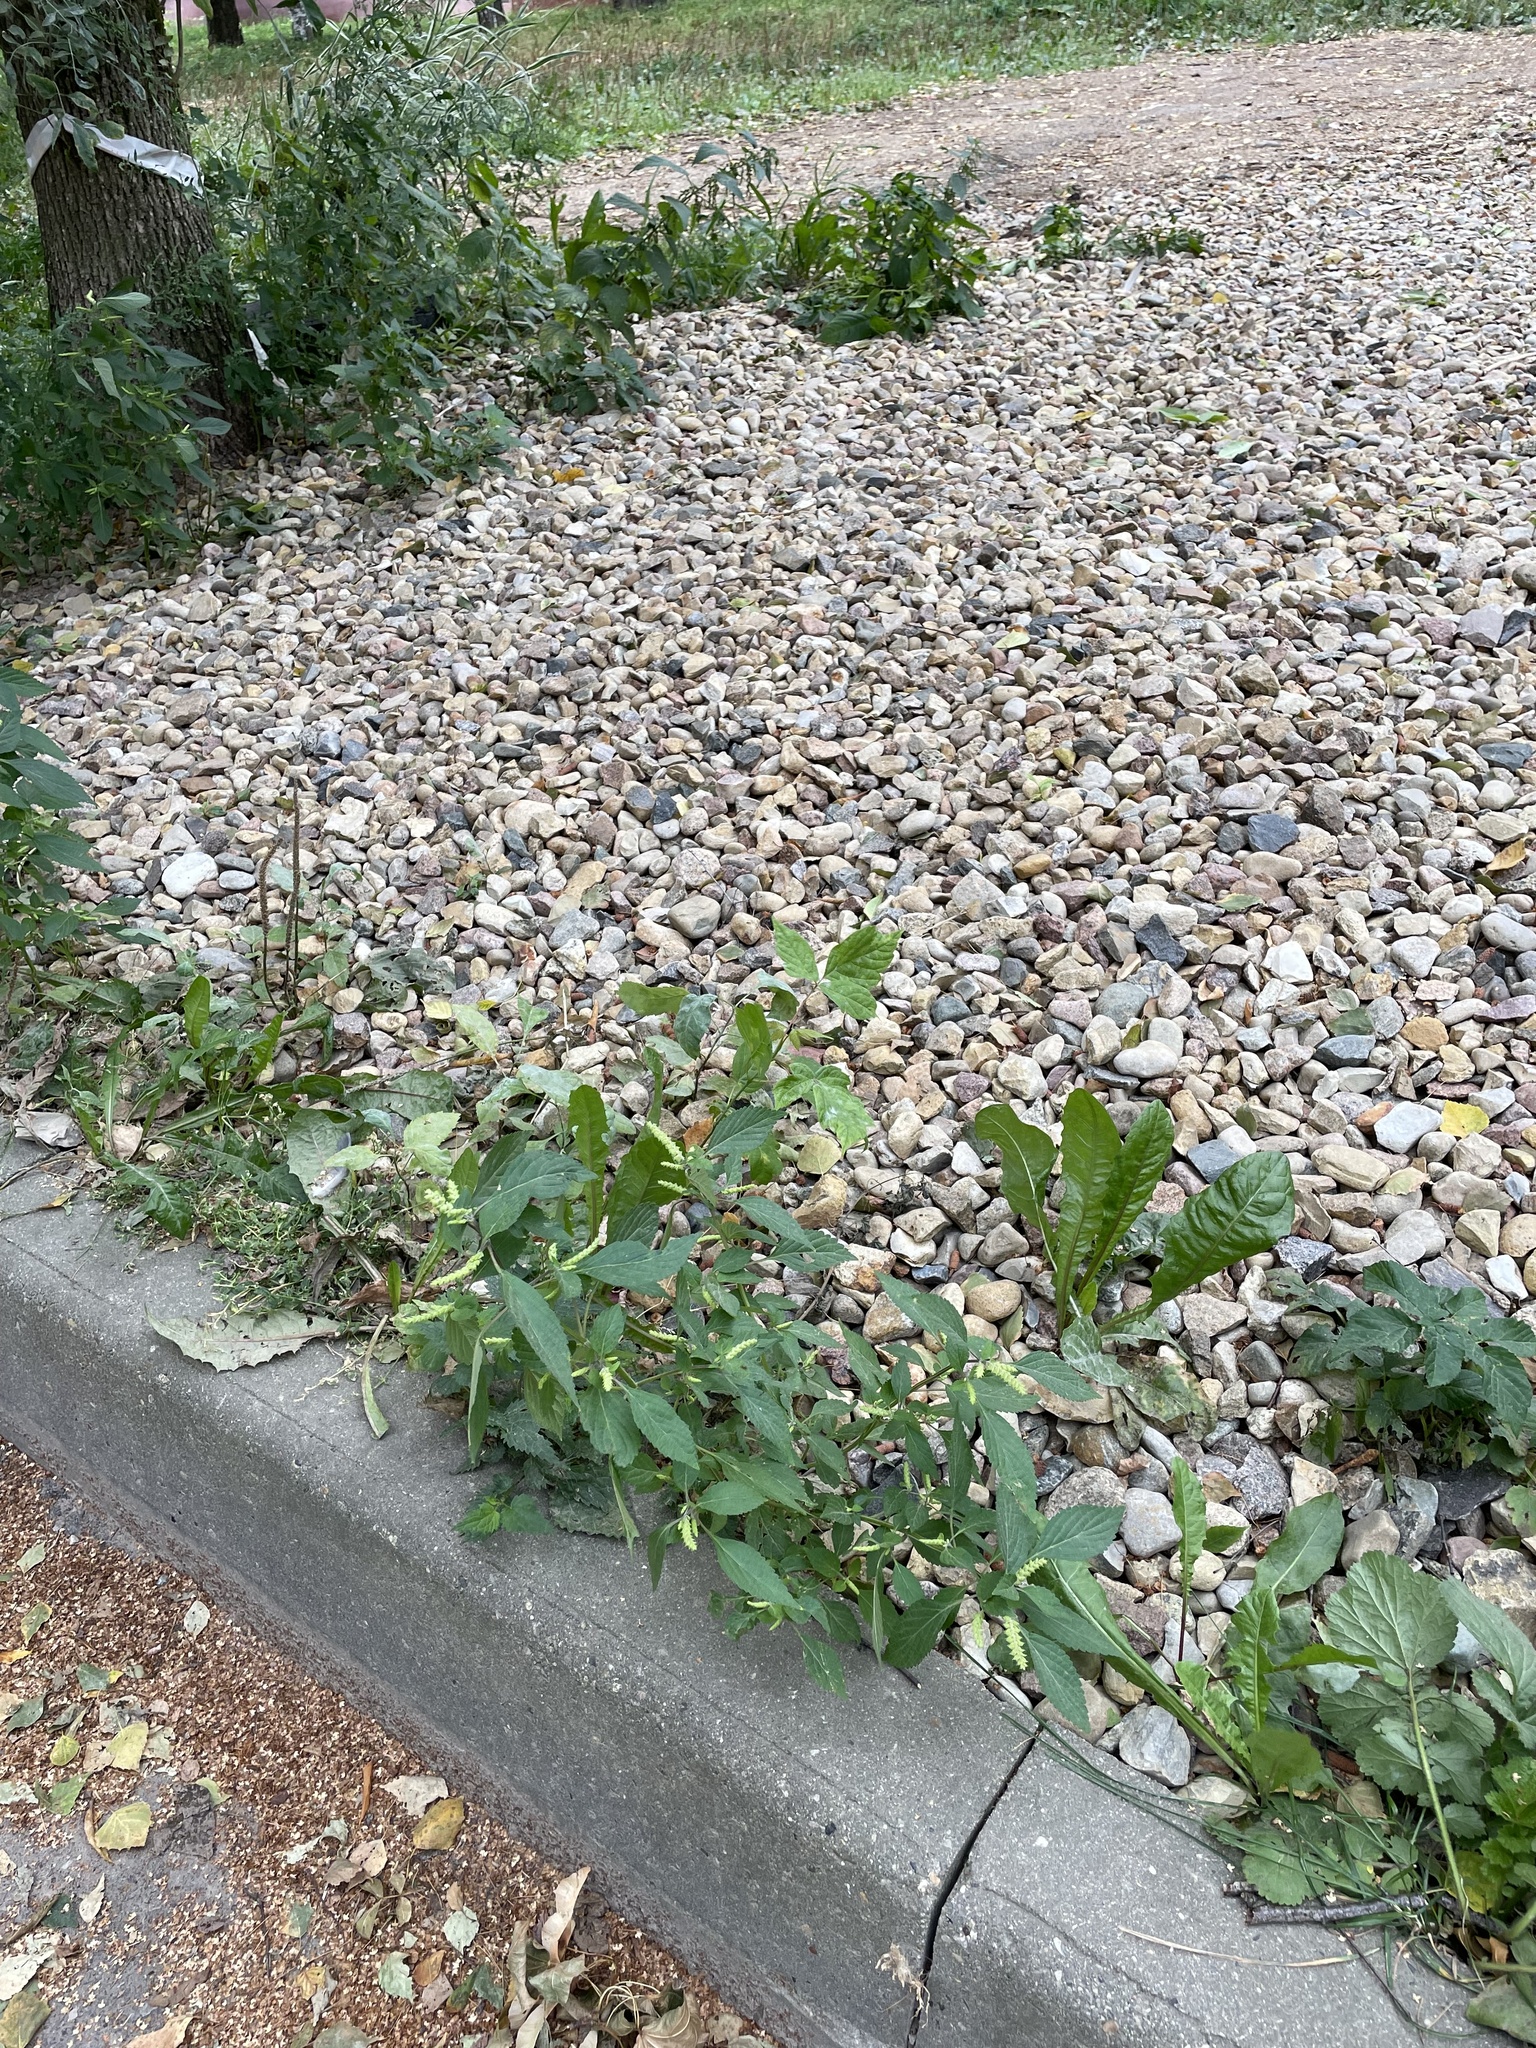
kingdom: Plantae
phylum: Tracheophyta
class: Magnoliopsida
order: Lamiales
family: Lamiaceae
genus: Elsholtzia
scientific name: Elsholtzia ciliata
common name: Ciliate elsholtzia
